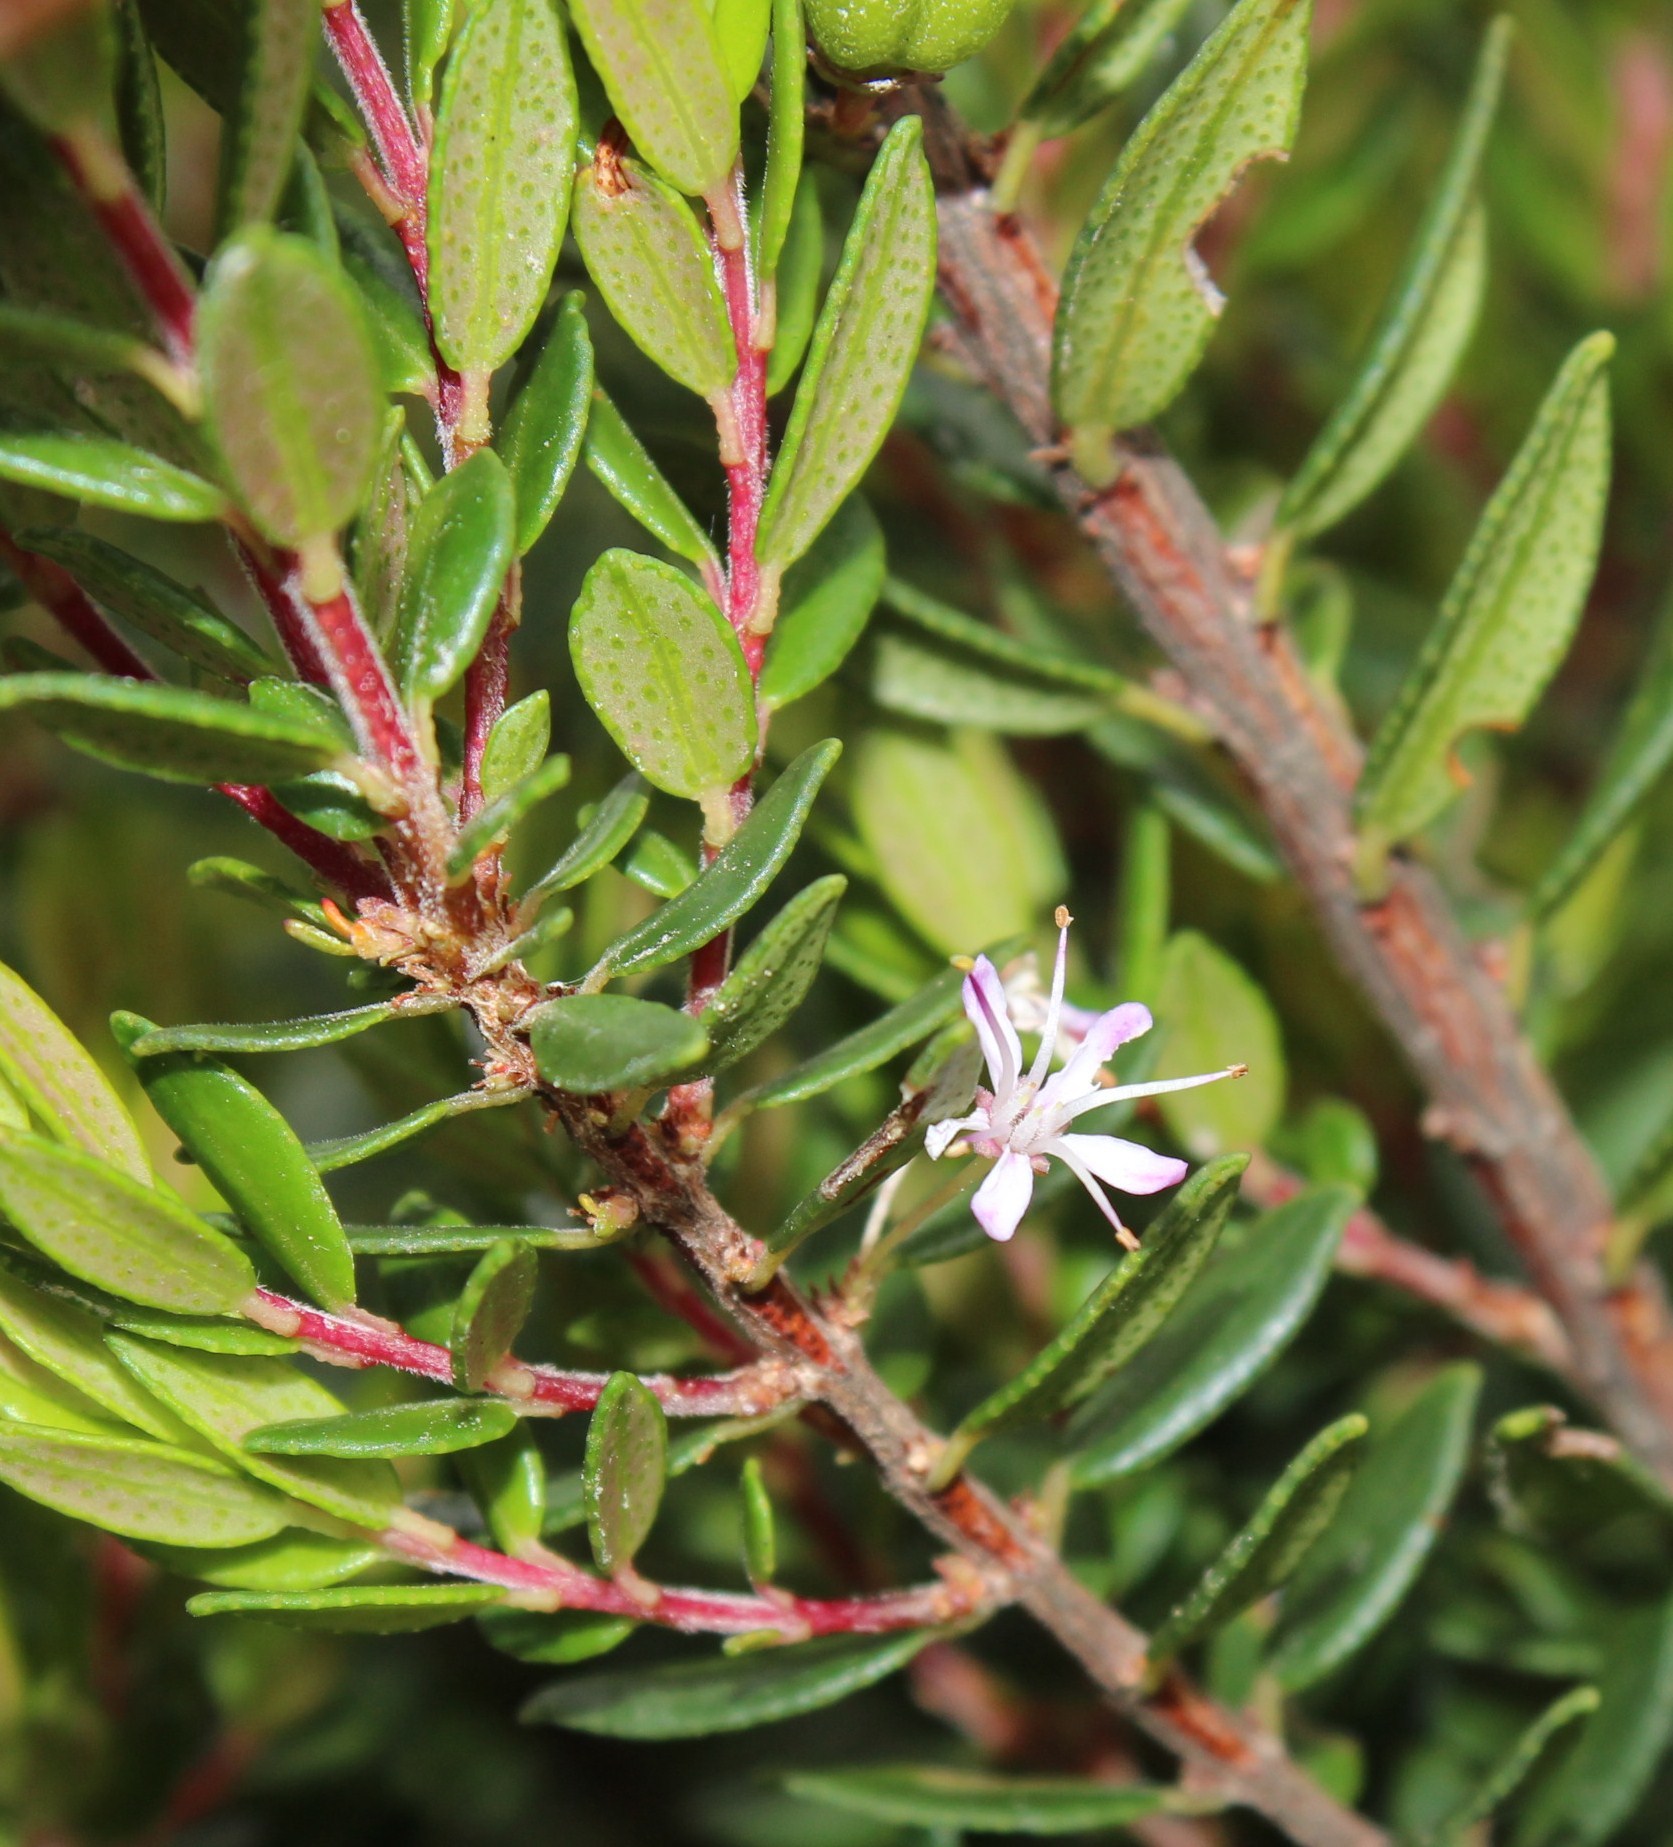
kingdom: Plantae
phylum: Tracheophyta
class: Magnoliopsida
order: Sapindales
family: Rutaceae
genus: Agathosma
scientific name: Agathosma ovata
